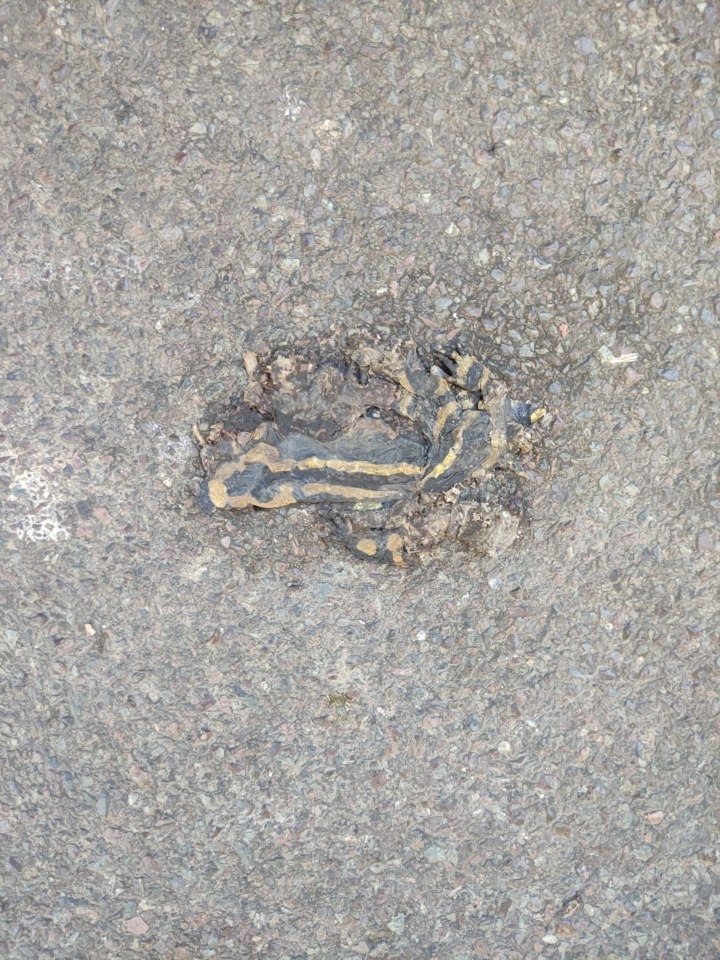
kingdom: Animalia
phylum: Chordata
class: Amphibia
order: Caudata
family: Salamandridae
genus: Salamandra
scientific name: Salamandra salamandra
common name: Fire salamander
